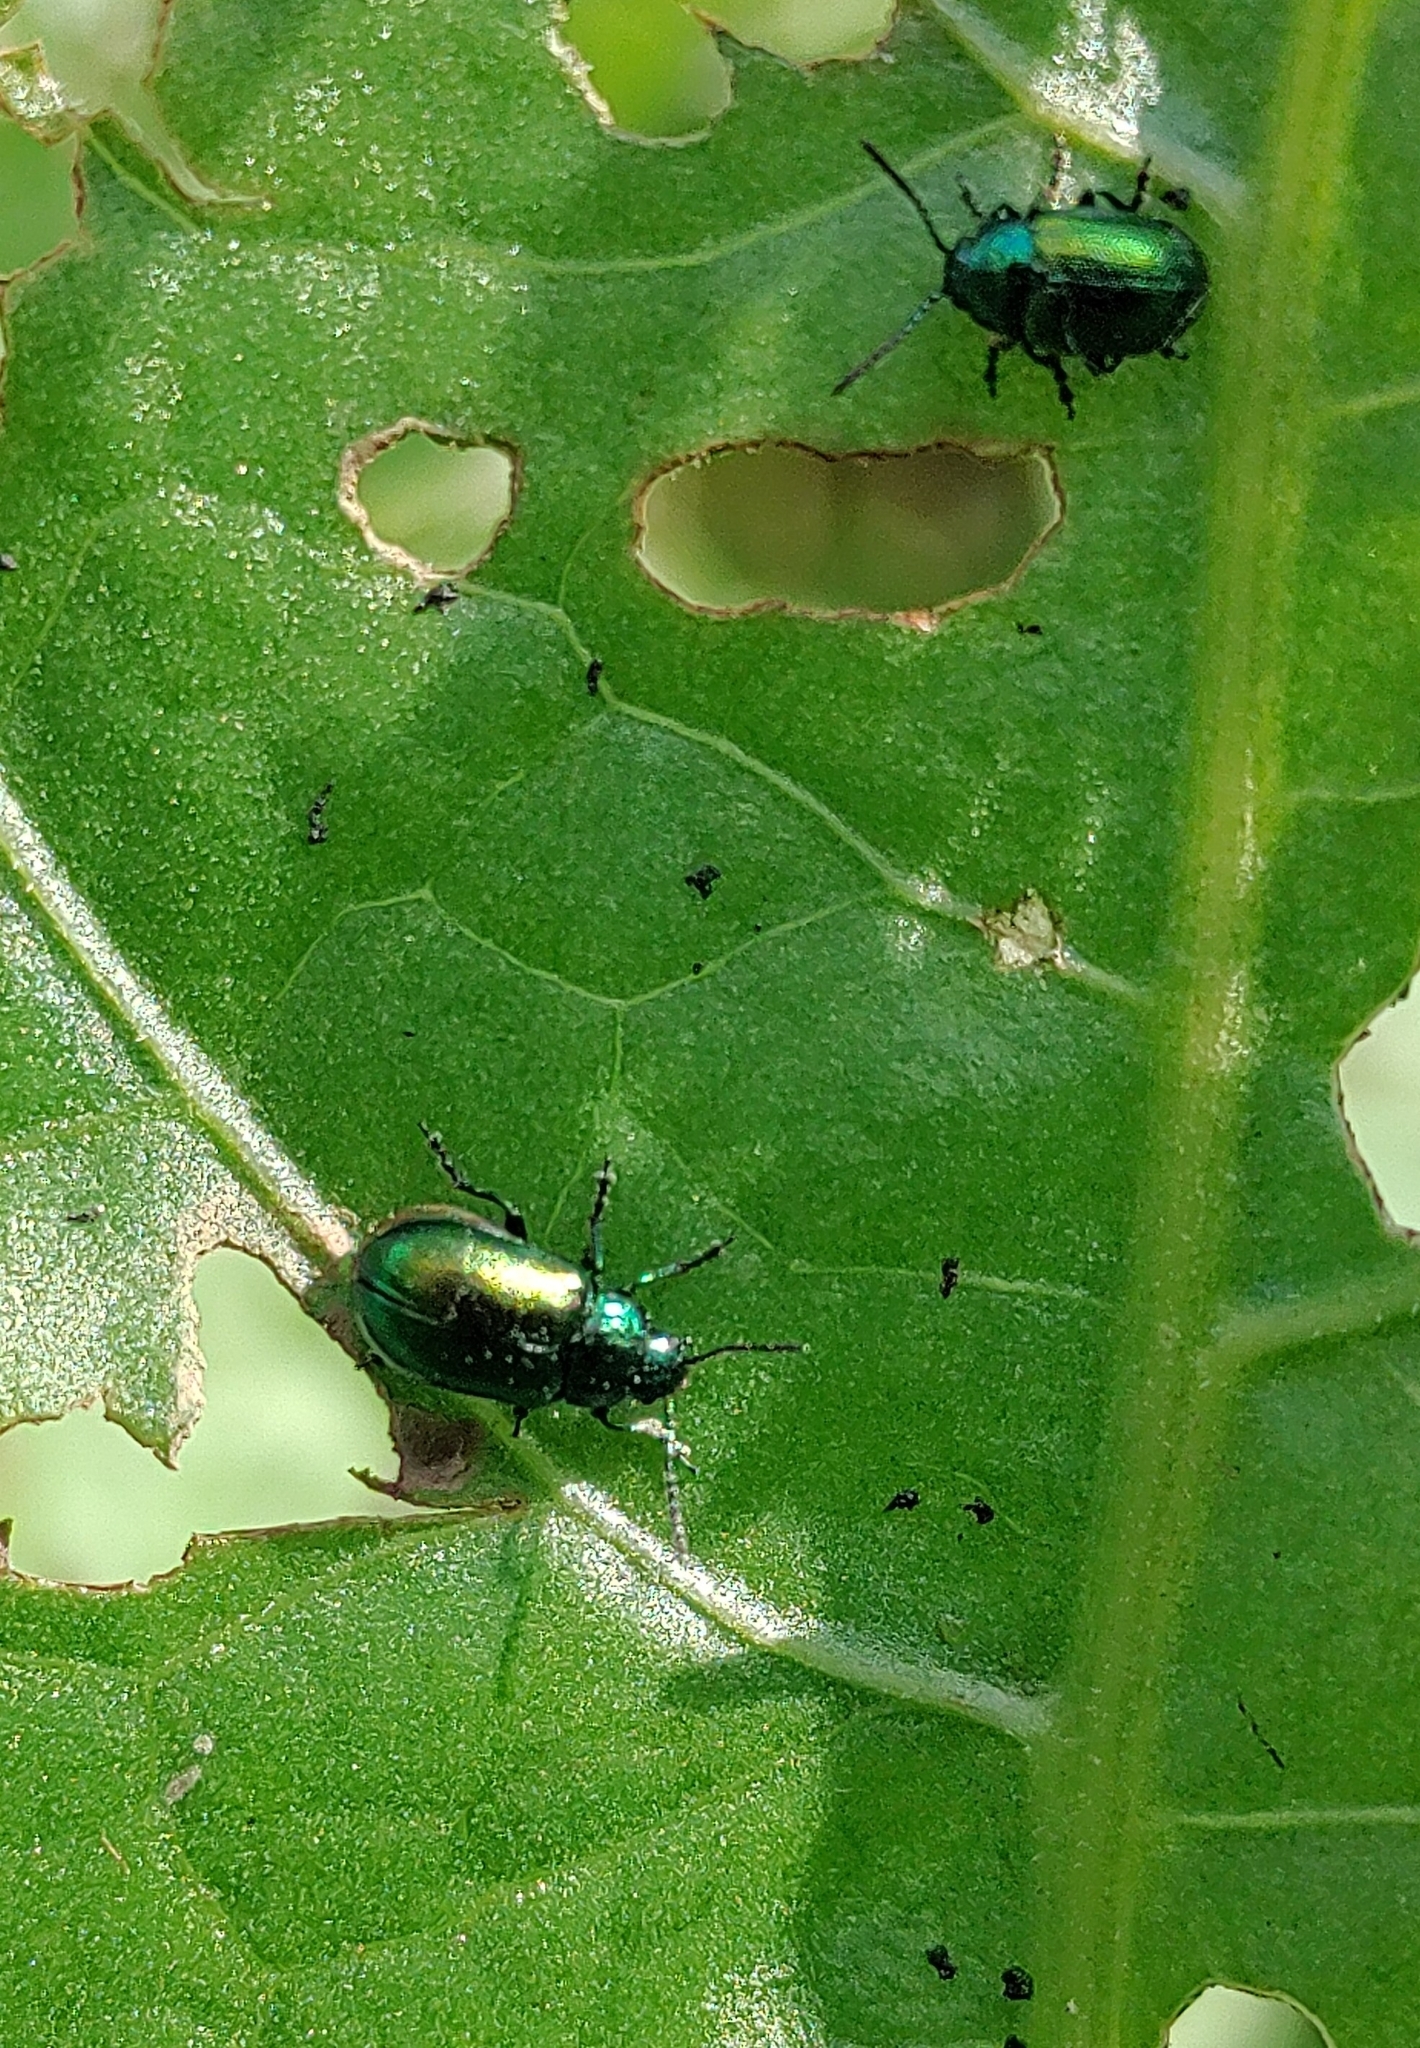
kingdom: Animalia
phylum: Arthropoda
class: Insecta
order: Coleoptera
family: Chrysomelidae
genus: Gastrophysa
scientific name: Gastrophysa viridula
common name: Green dock beetle
